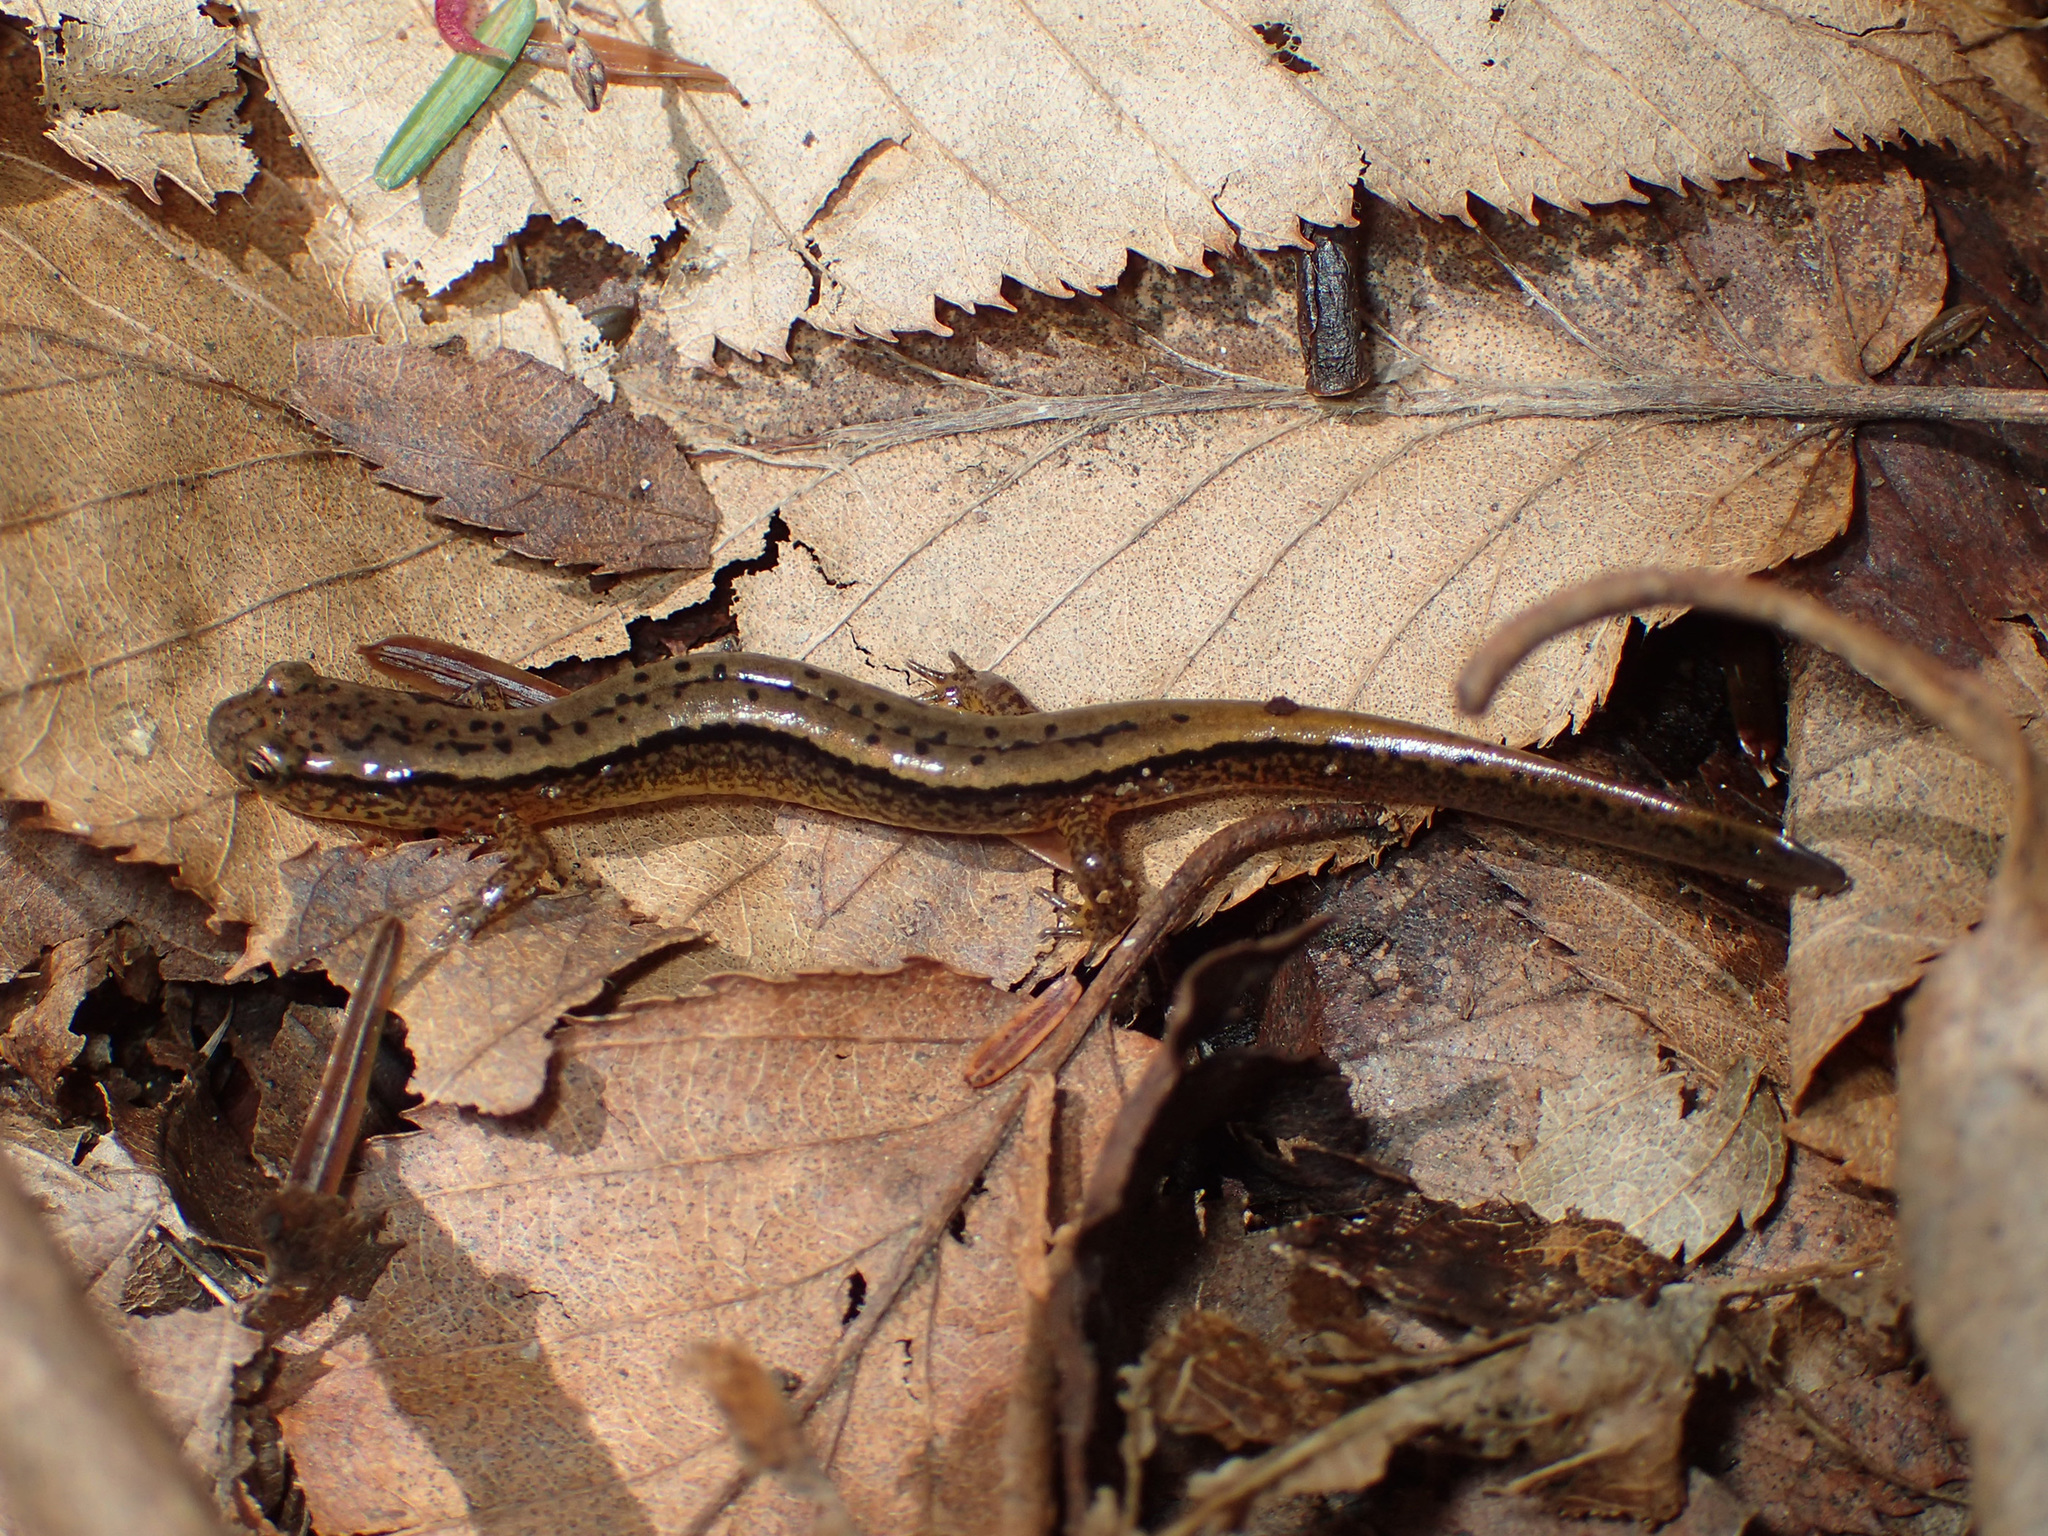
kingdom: Animalia
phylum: Chordata
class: Amphibia
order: Caudata
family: Plethodontidae
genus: Eurycea
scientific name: Eurycea bislineata
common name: Northern two-lined salamander
